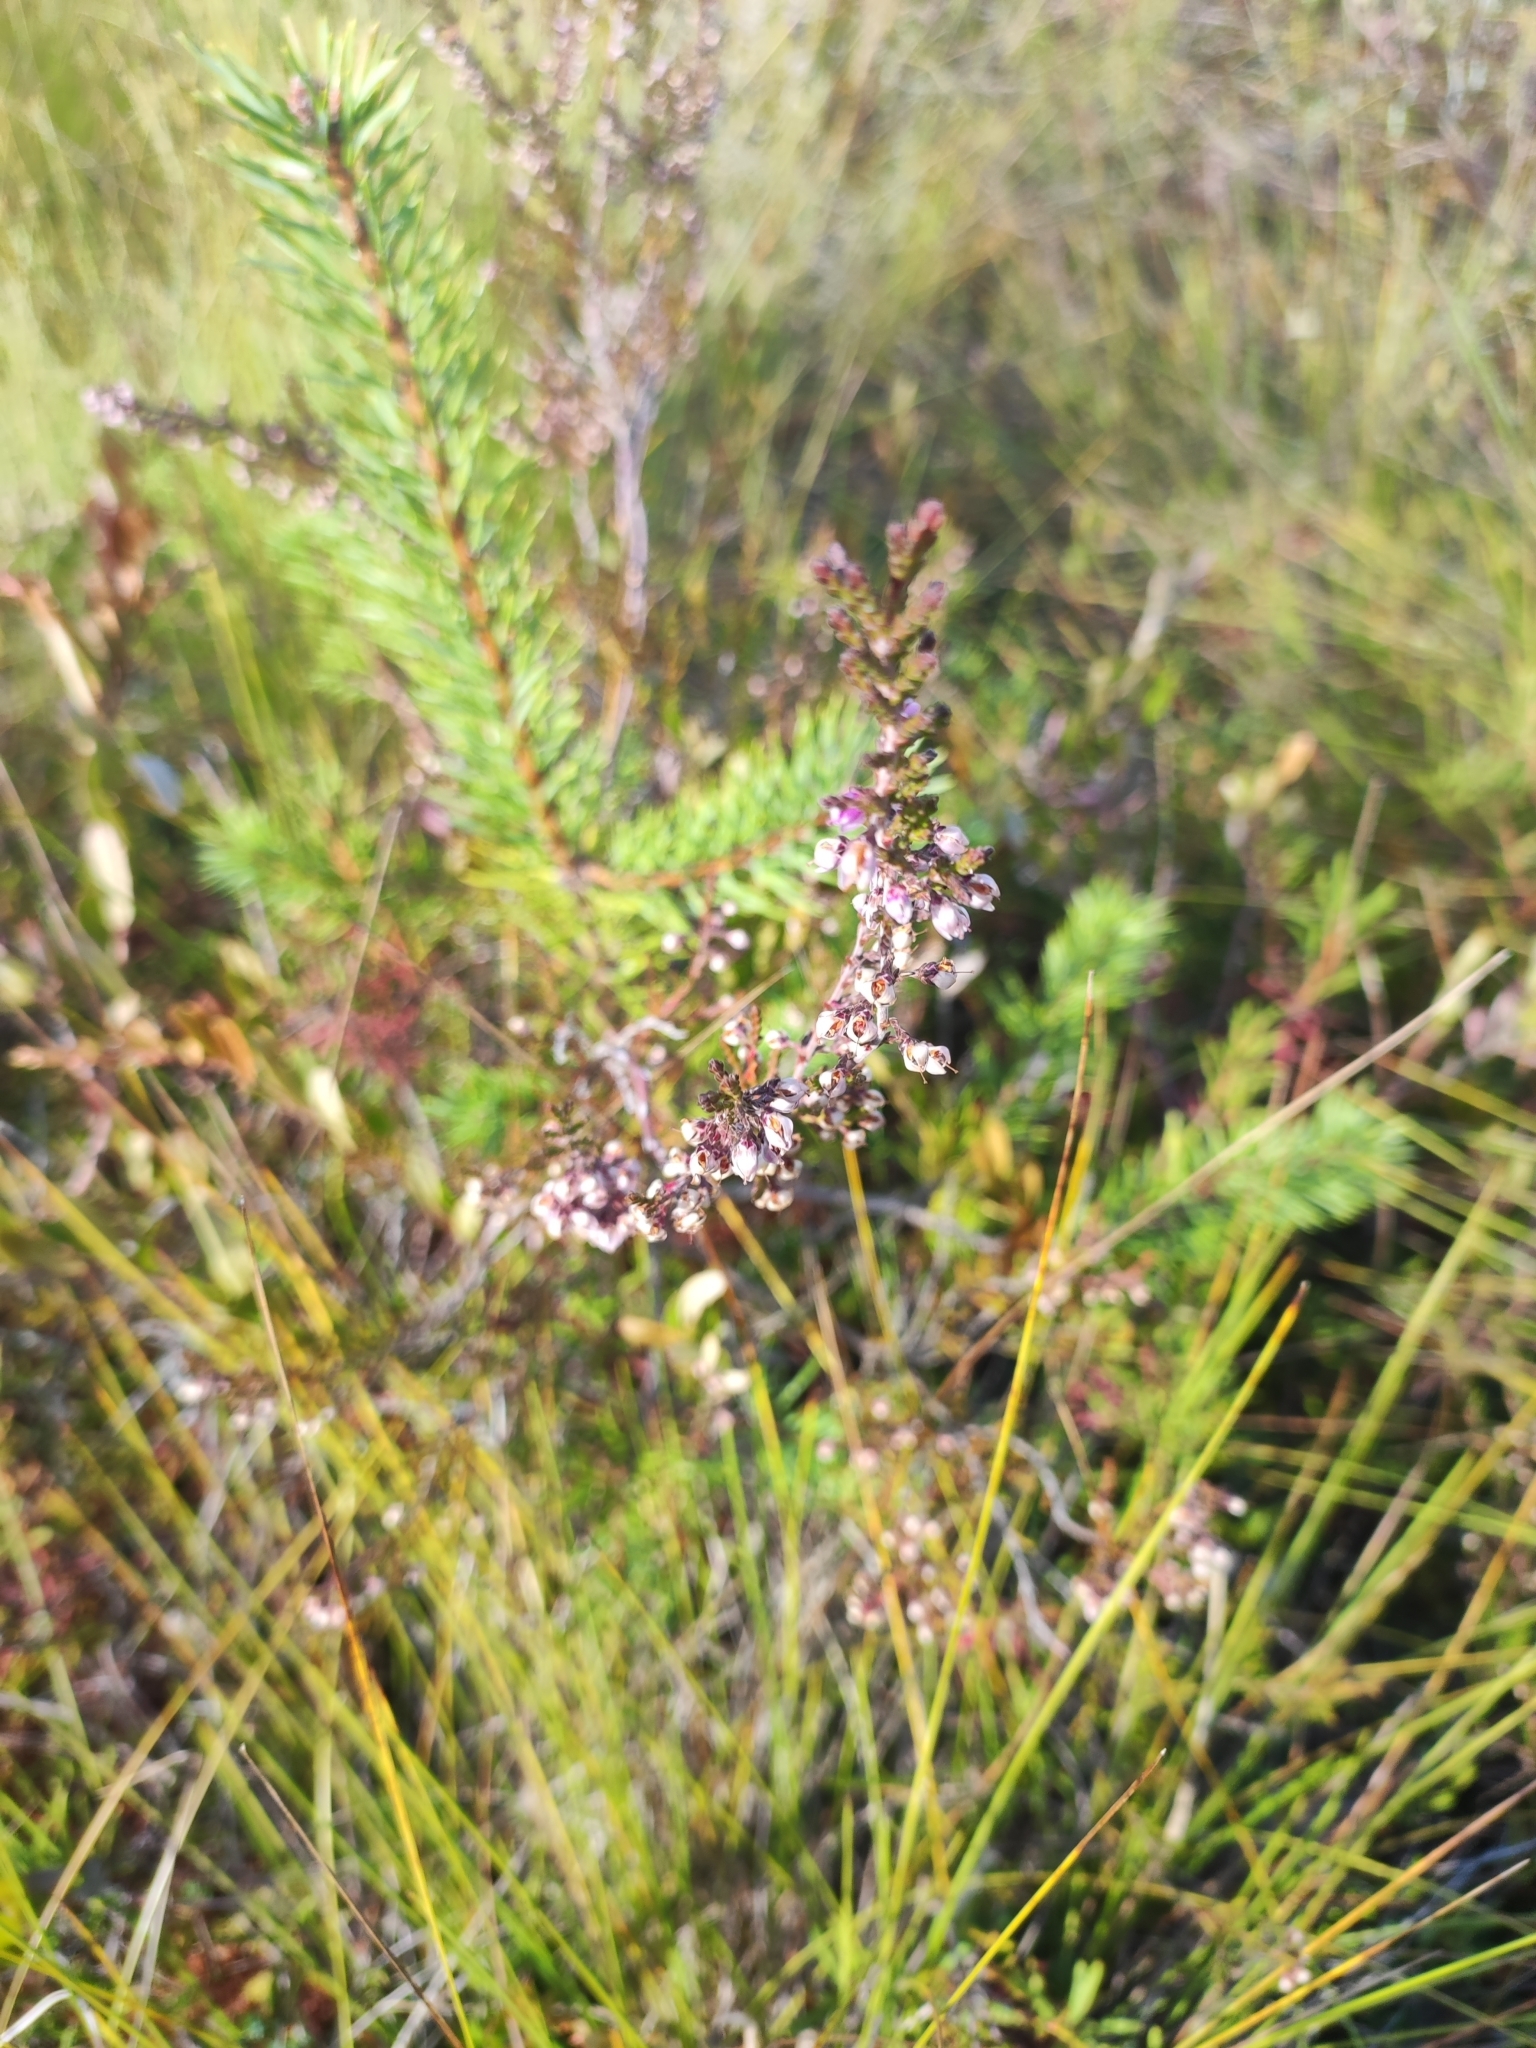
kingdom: Plantae
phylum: Tracheophyta
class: Magnoliopsida
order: Ericales
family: Ericaceae
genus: Calluna
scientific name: Calluna vulgaris
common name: Heather
